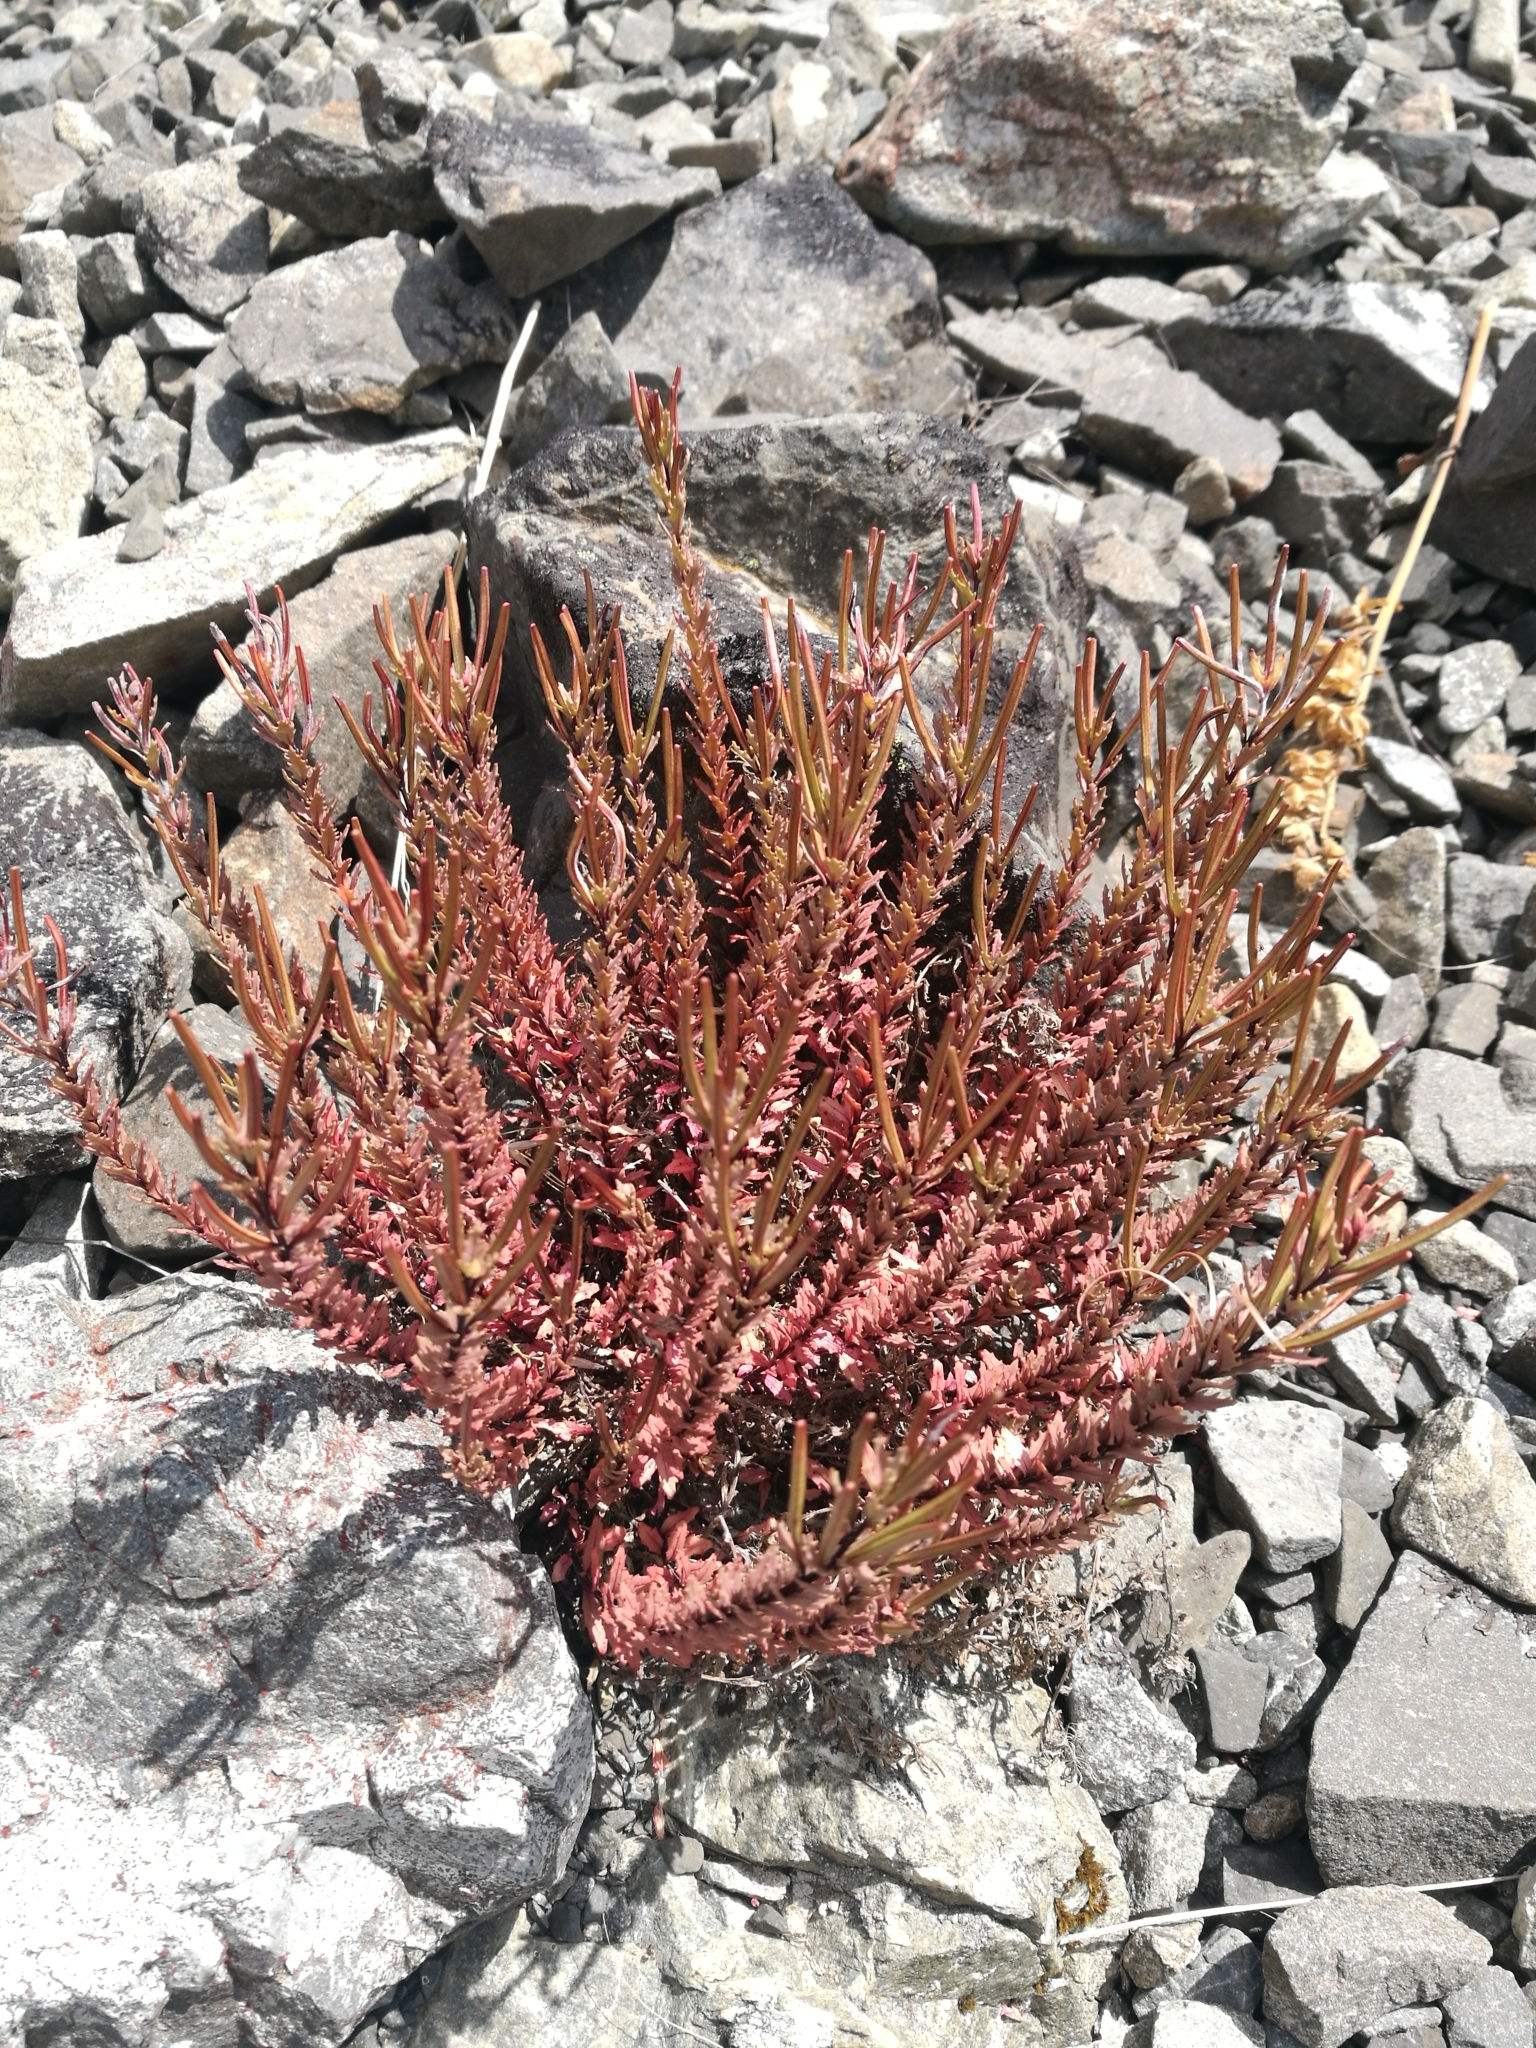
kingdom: Plantae
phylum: Tracheophyta
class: Magnoliopsida
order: Myrtales
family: Onagraceae
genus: Epilobium
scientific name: Epilobium melanocaulon
